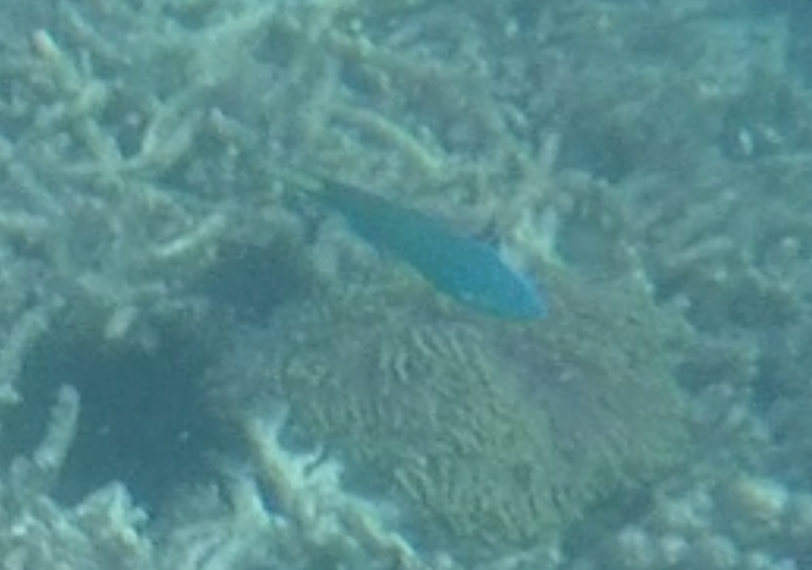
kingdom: Animalia
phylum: Chordata
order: Perciformes
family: Labridae
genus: Thalassoma
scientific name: Thalassoma lunare
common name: Blue wrasse
